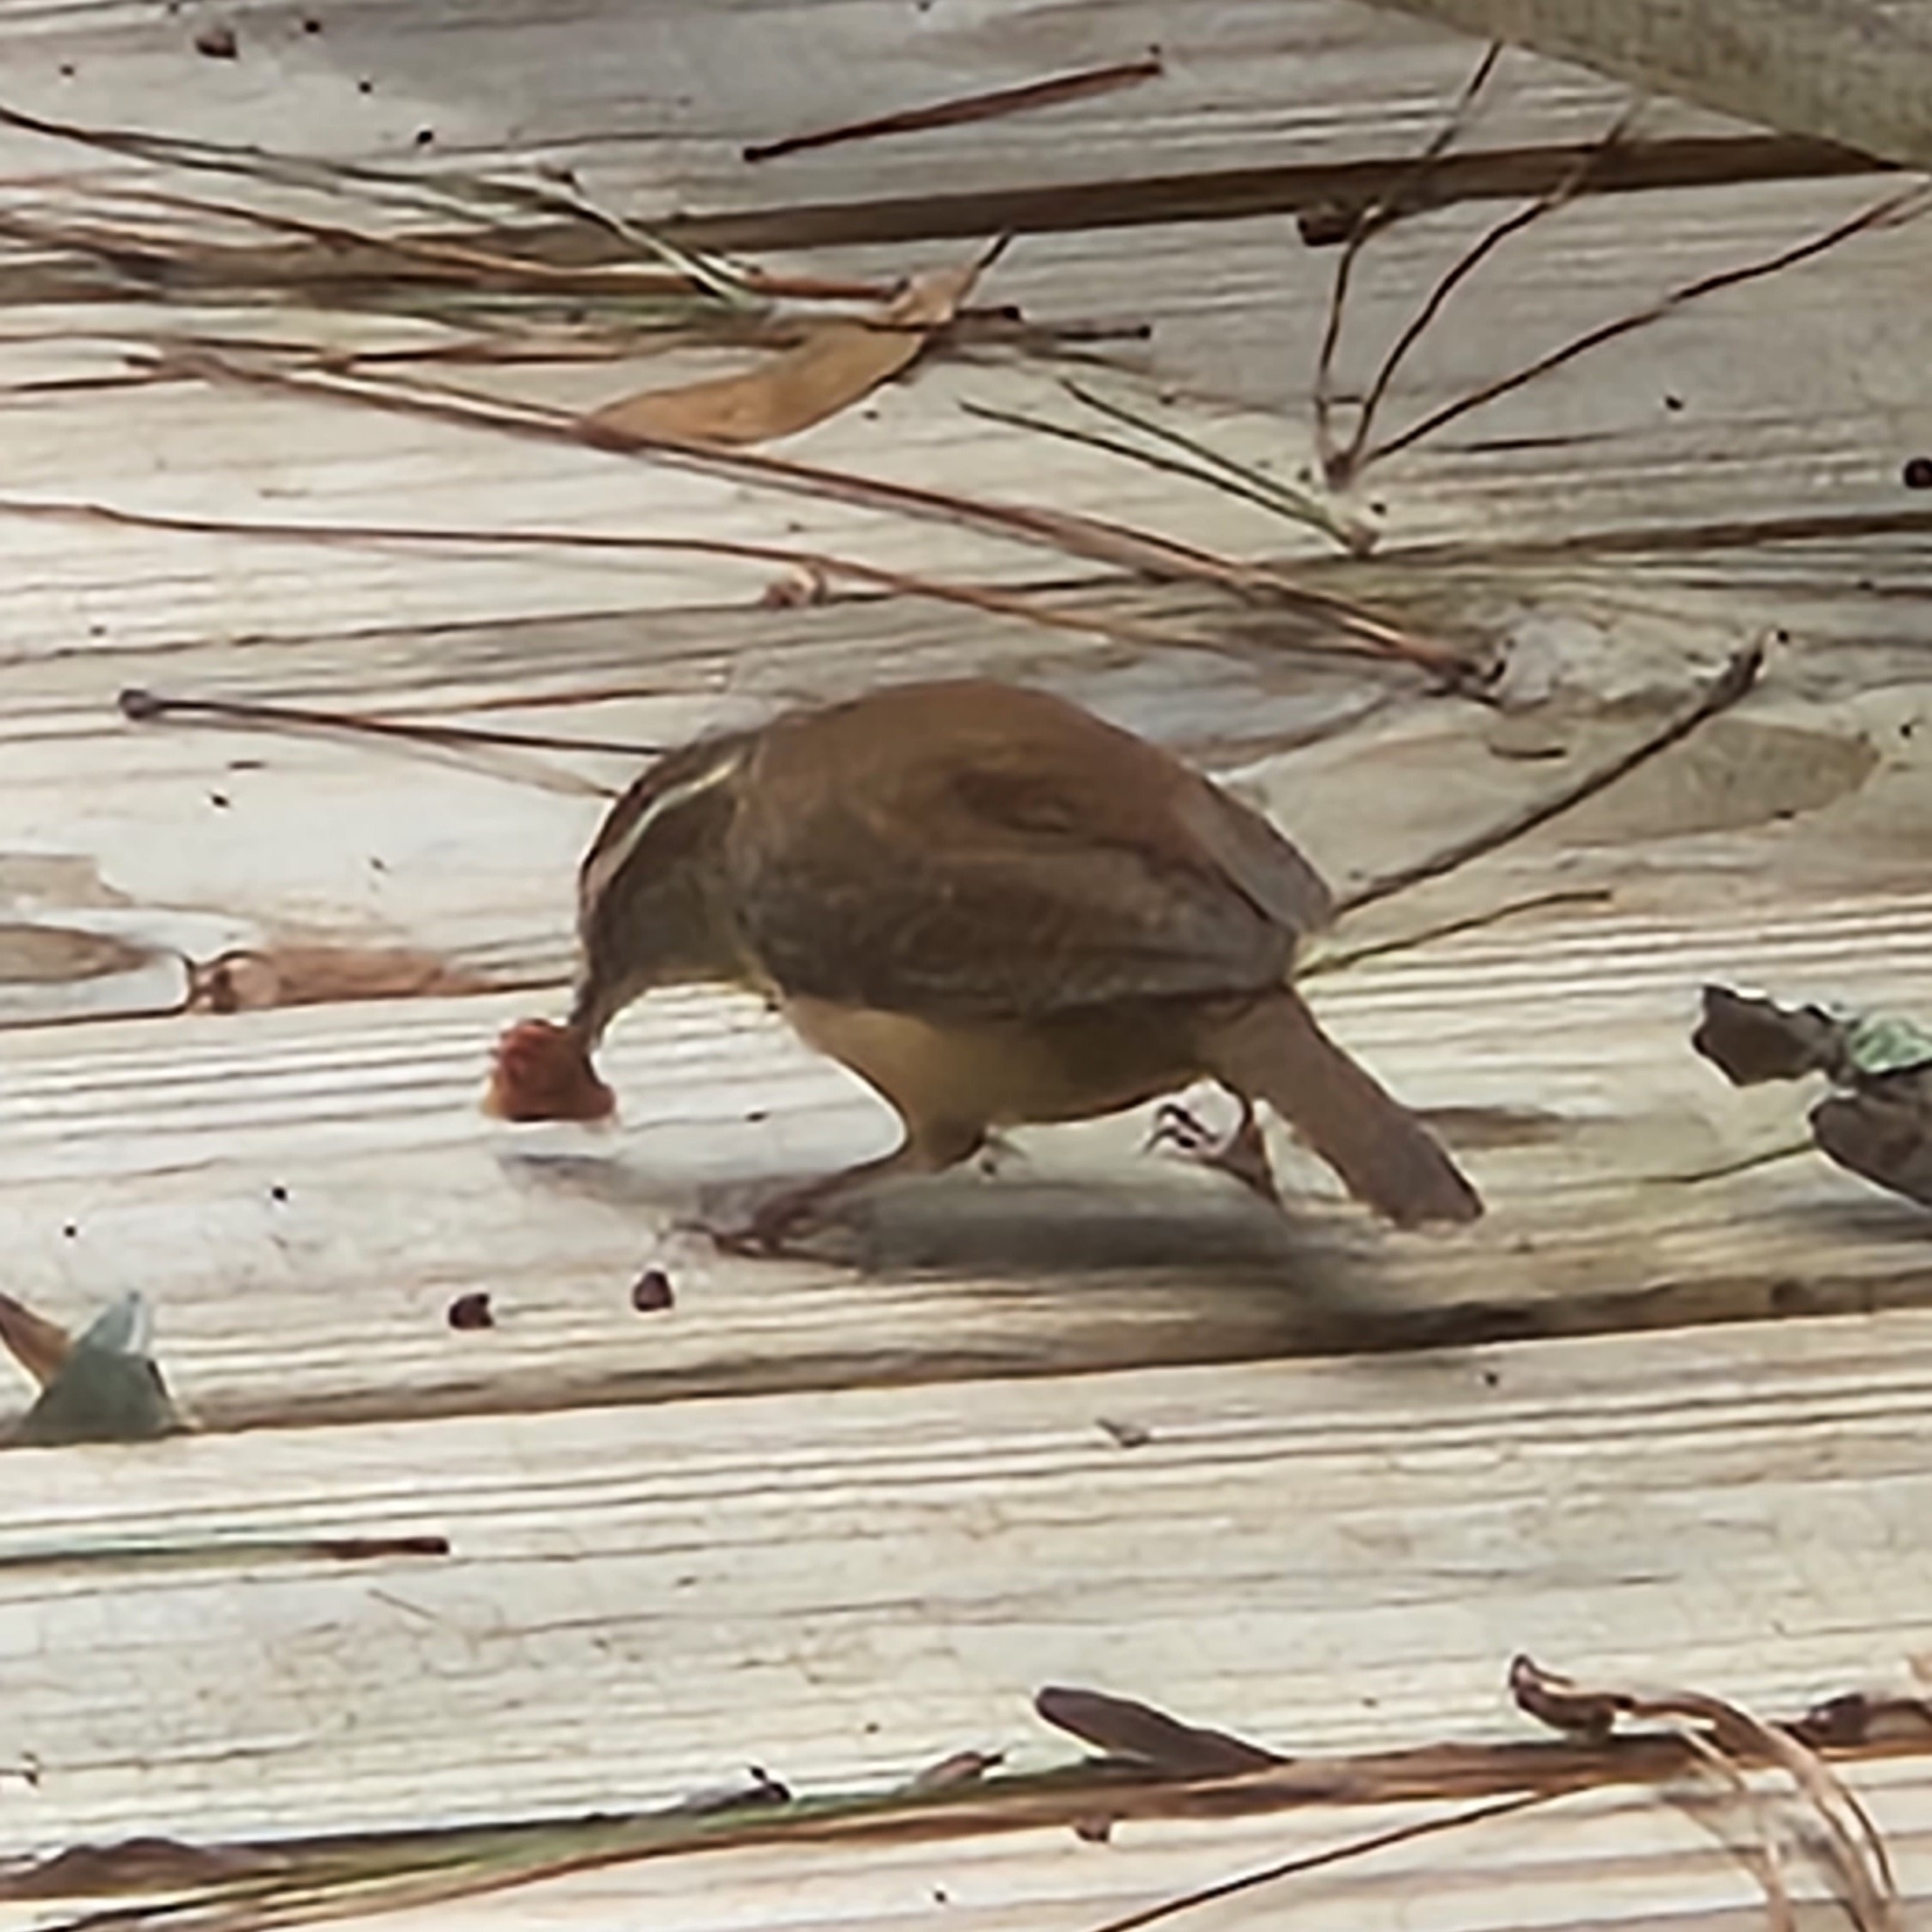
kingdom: Animalia
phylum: Chordata
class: Aves
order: Passeriformes
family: Troglodytidae
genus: Thryothorus
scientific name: Thryothorus ludovicianus
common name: Carolina wren
